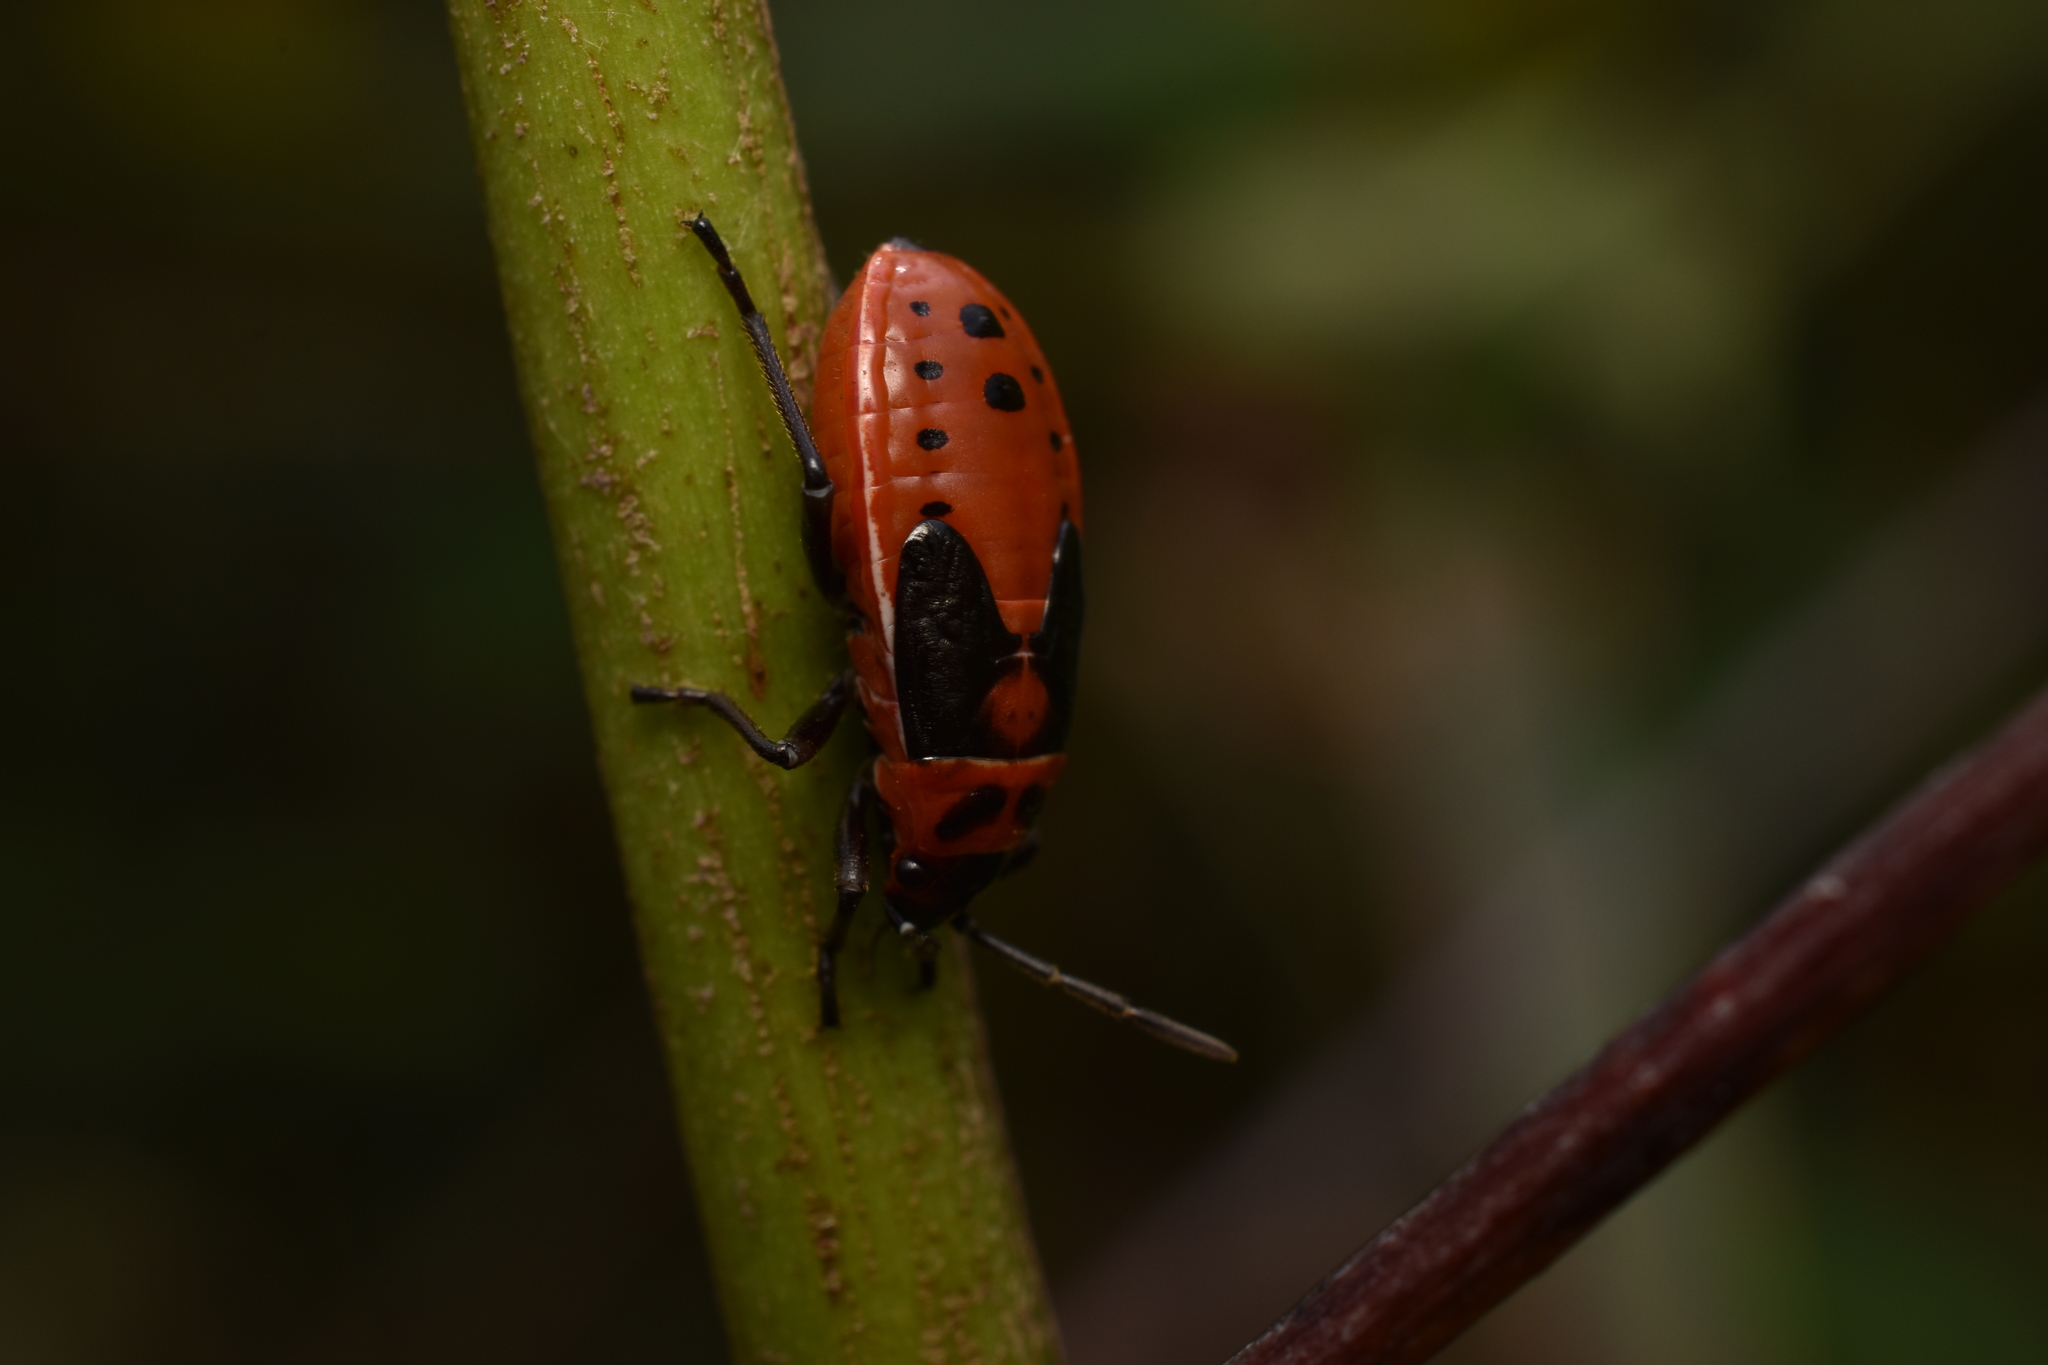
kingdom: Animalia
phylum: Arthropoda
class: Insecta
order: Hemiptera
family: Lygaeidae
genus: Lygaeus
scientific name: Lygaeus kalmii
